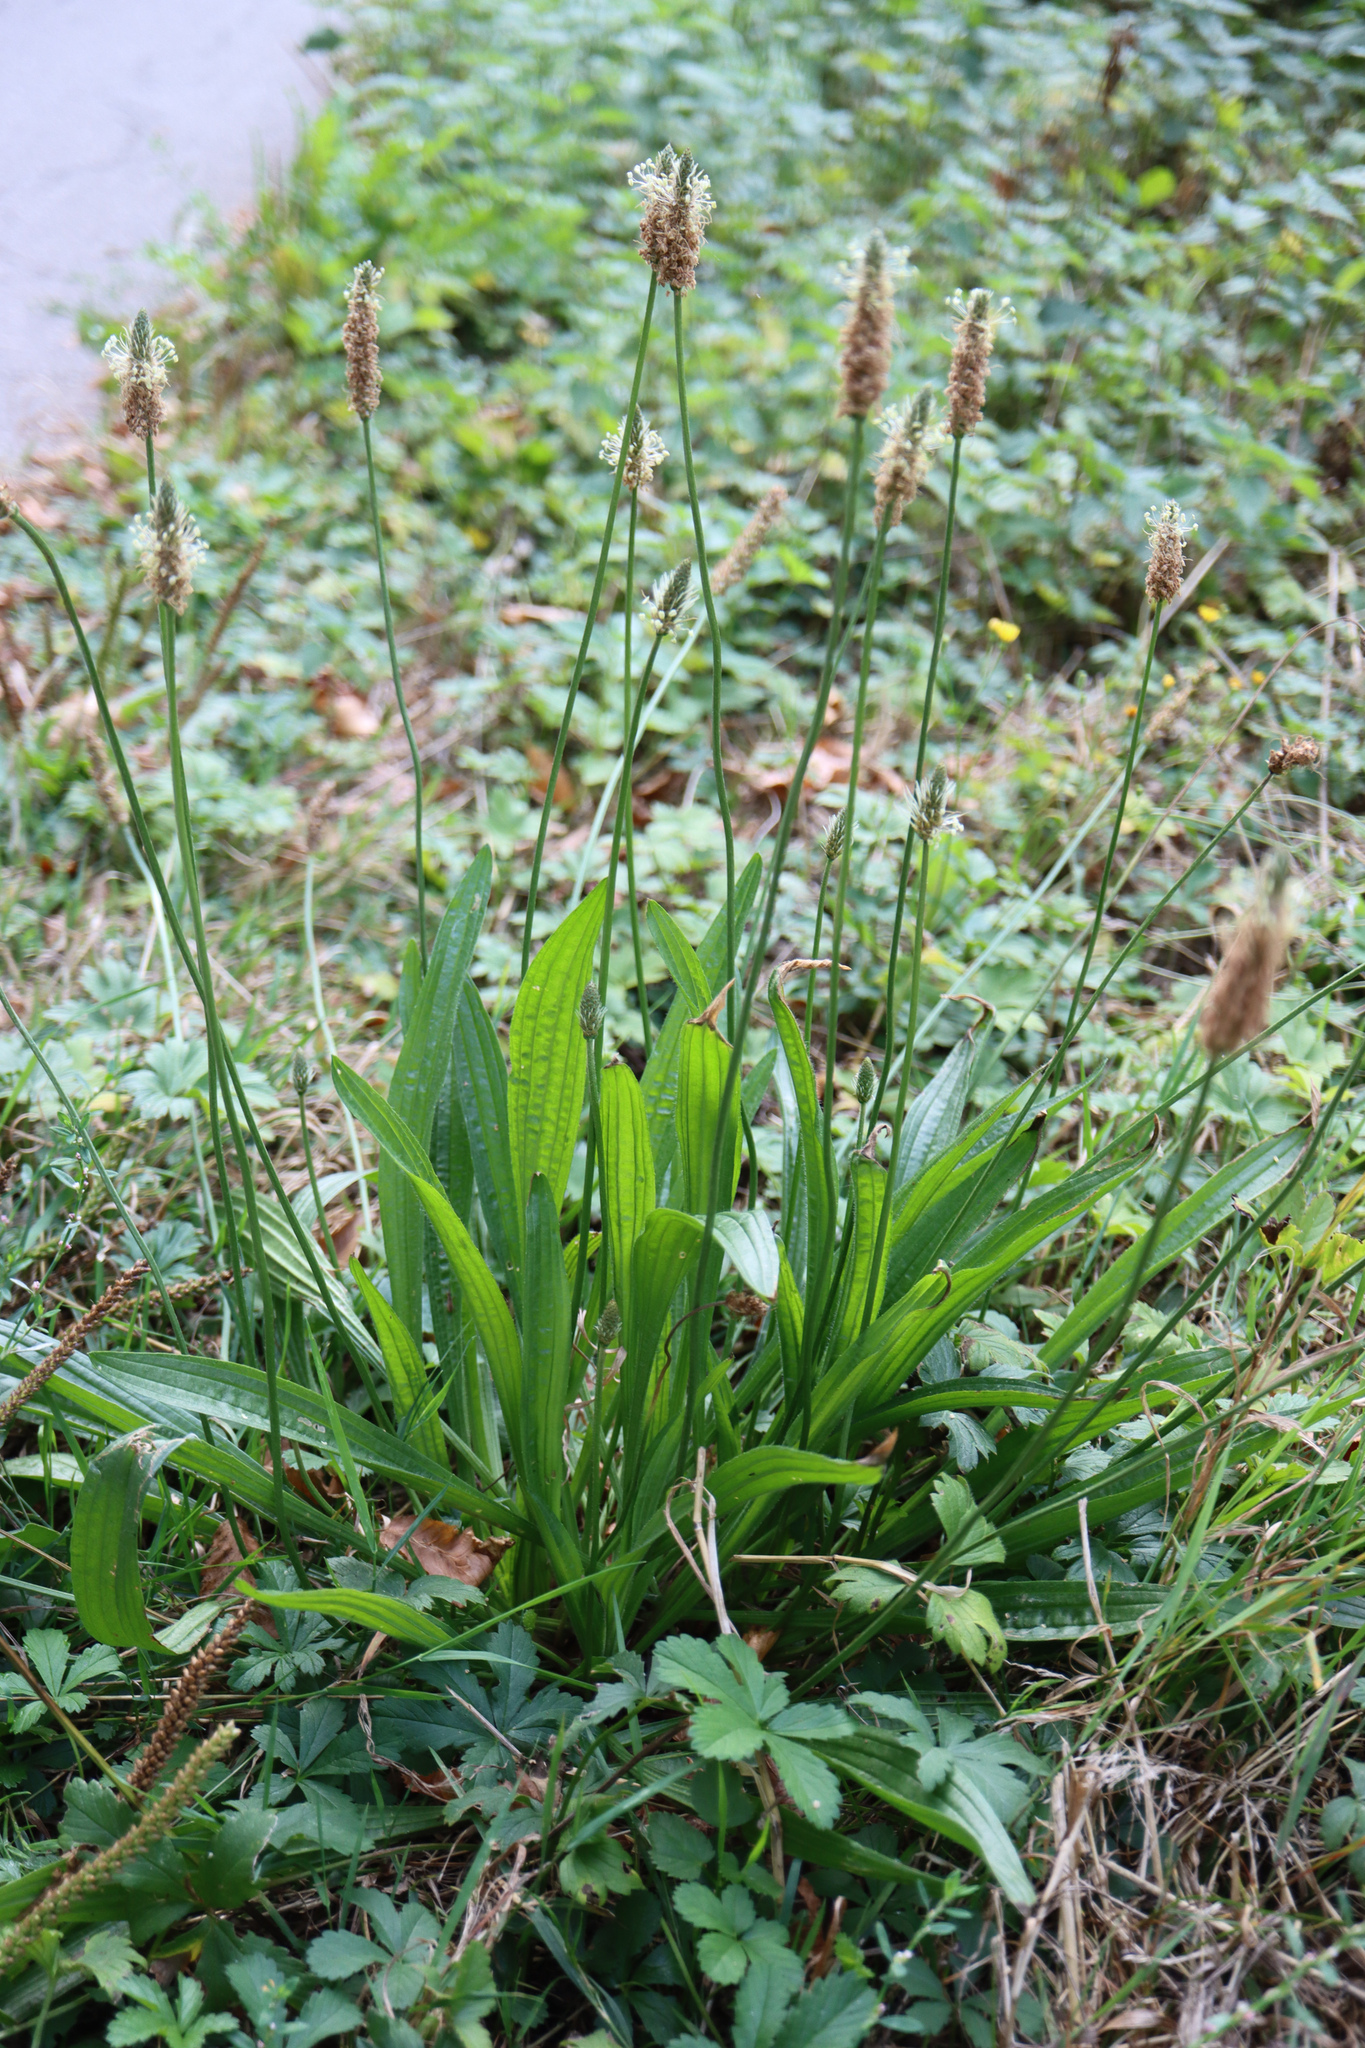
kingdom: Plantae
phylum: Tracheophyta
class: Magnoliopsida
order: Lamiales
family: Plantaginaceae
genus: Plantago
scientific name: Plantago lanceolata
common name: Ribwort plantain
